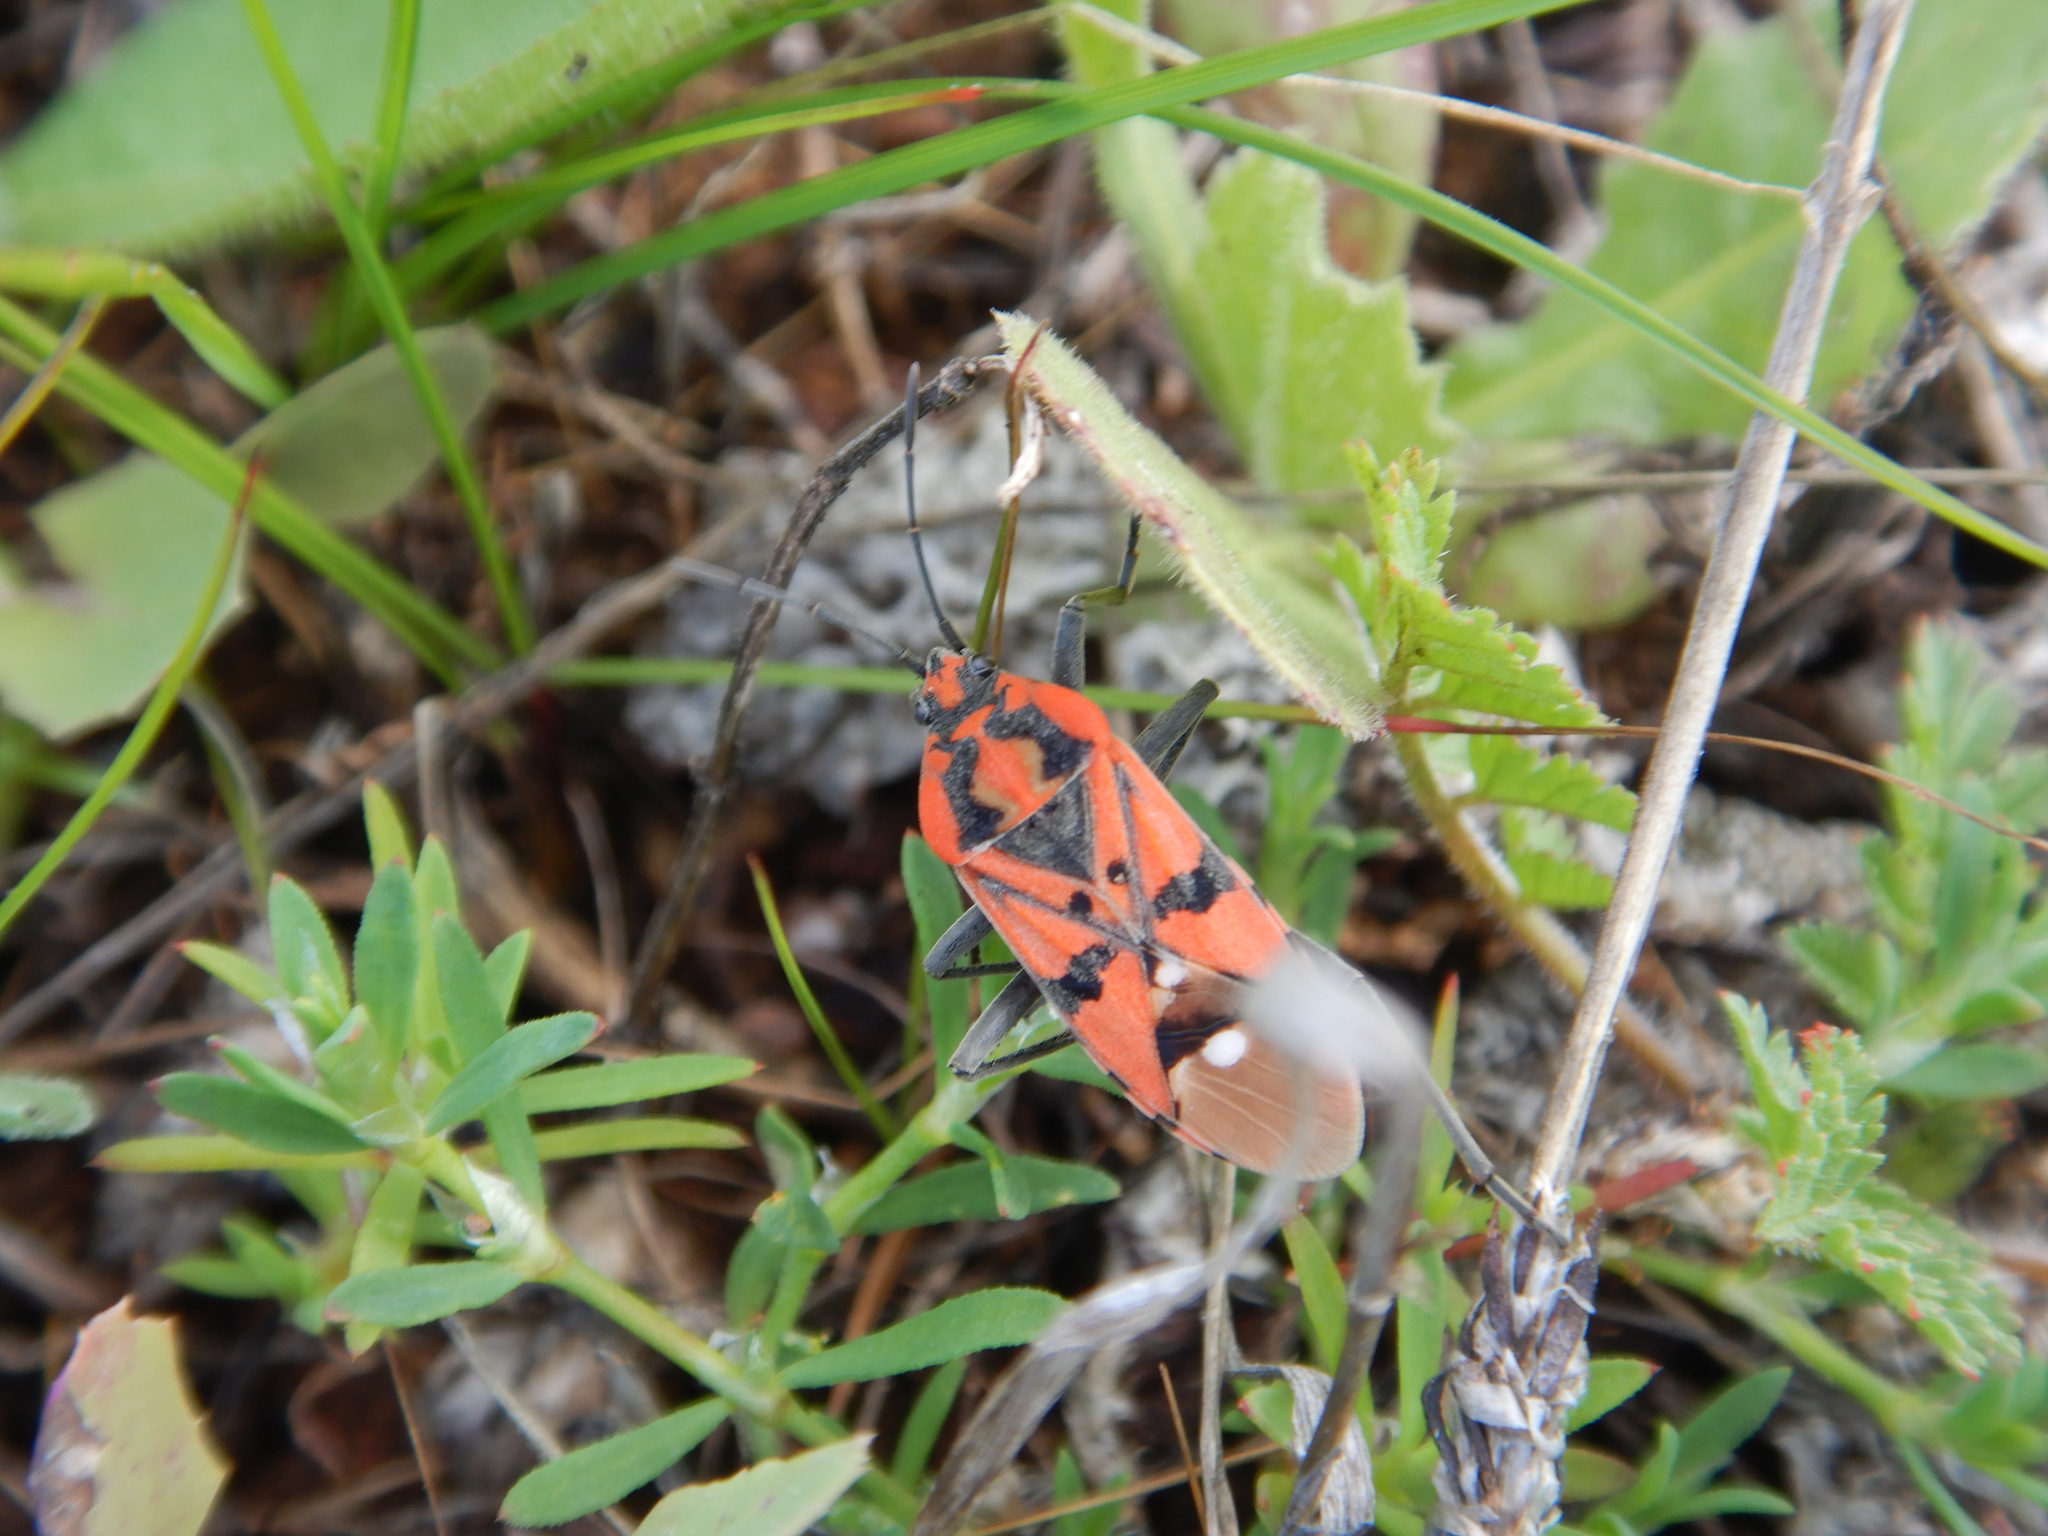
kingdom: Animalia
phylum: Arthropoda
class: Insecta
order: Hemiptera
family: Lygaeidae
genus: Spilostethus
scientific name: Spilostethus pandurus
